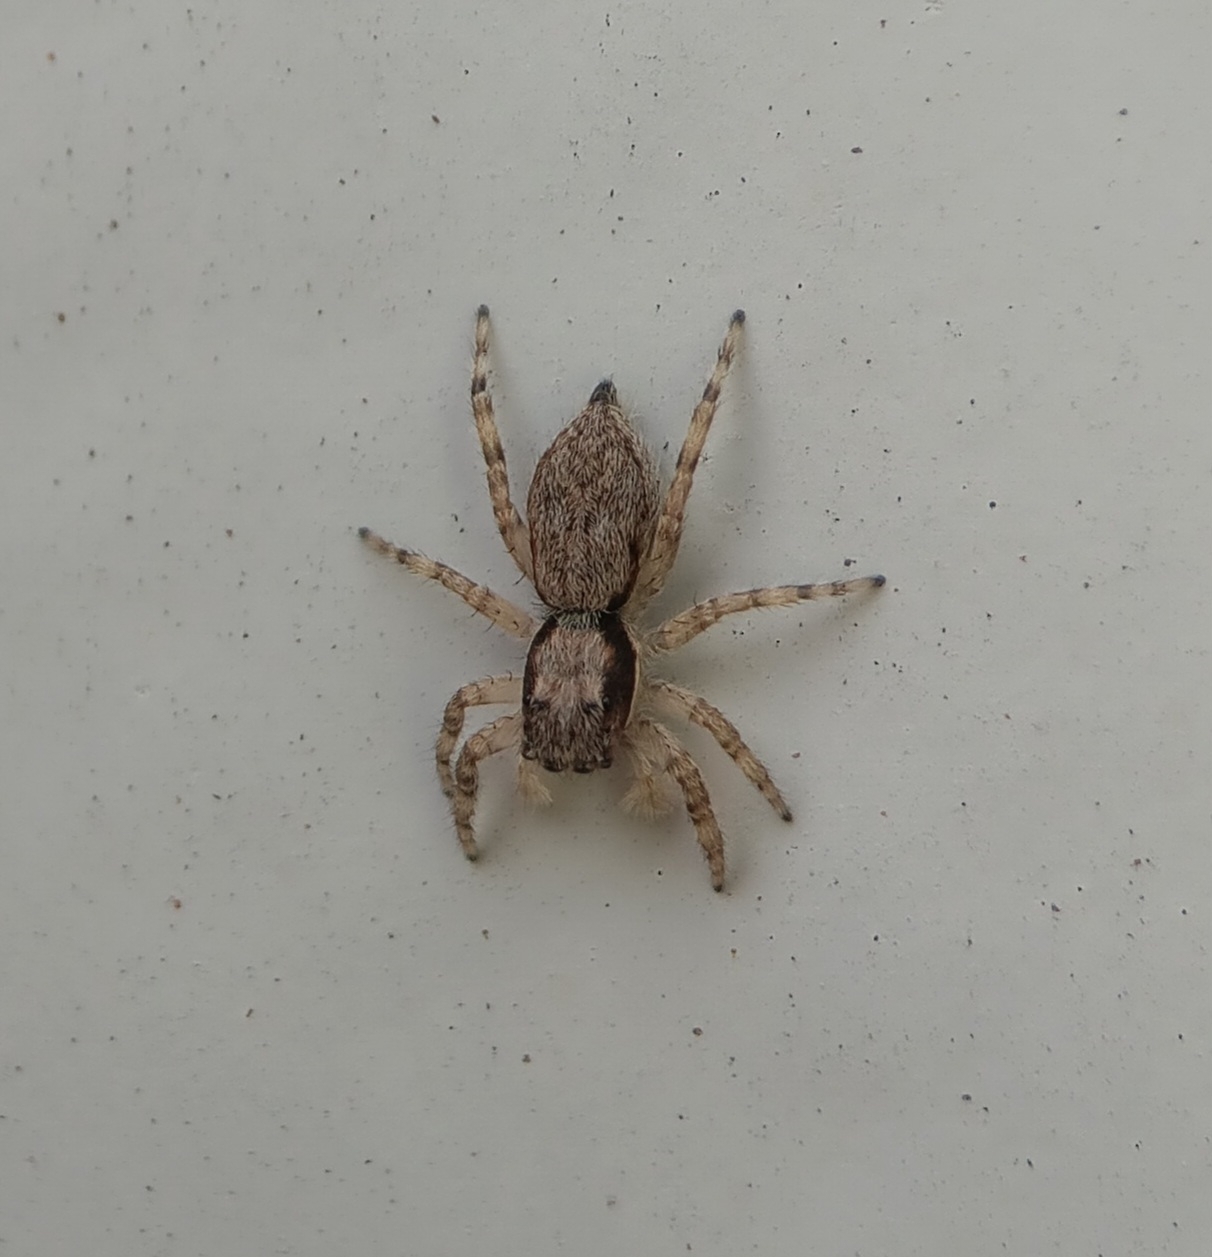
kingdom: Animalia
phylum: Arthropoda
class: Arachnida
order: Araneae
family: Salticidae
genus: Menemerus
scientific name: Menemerus bivittatus
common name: Gray wall jumper
